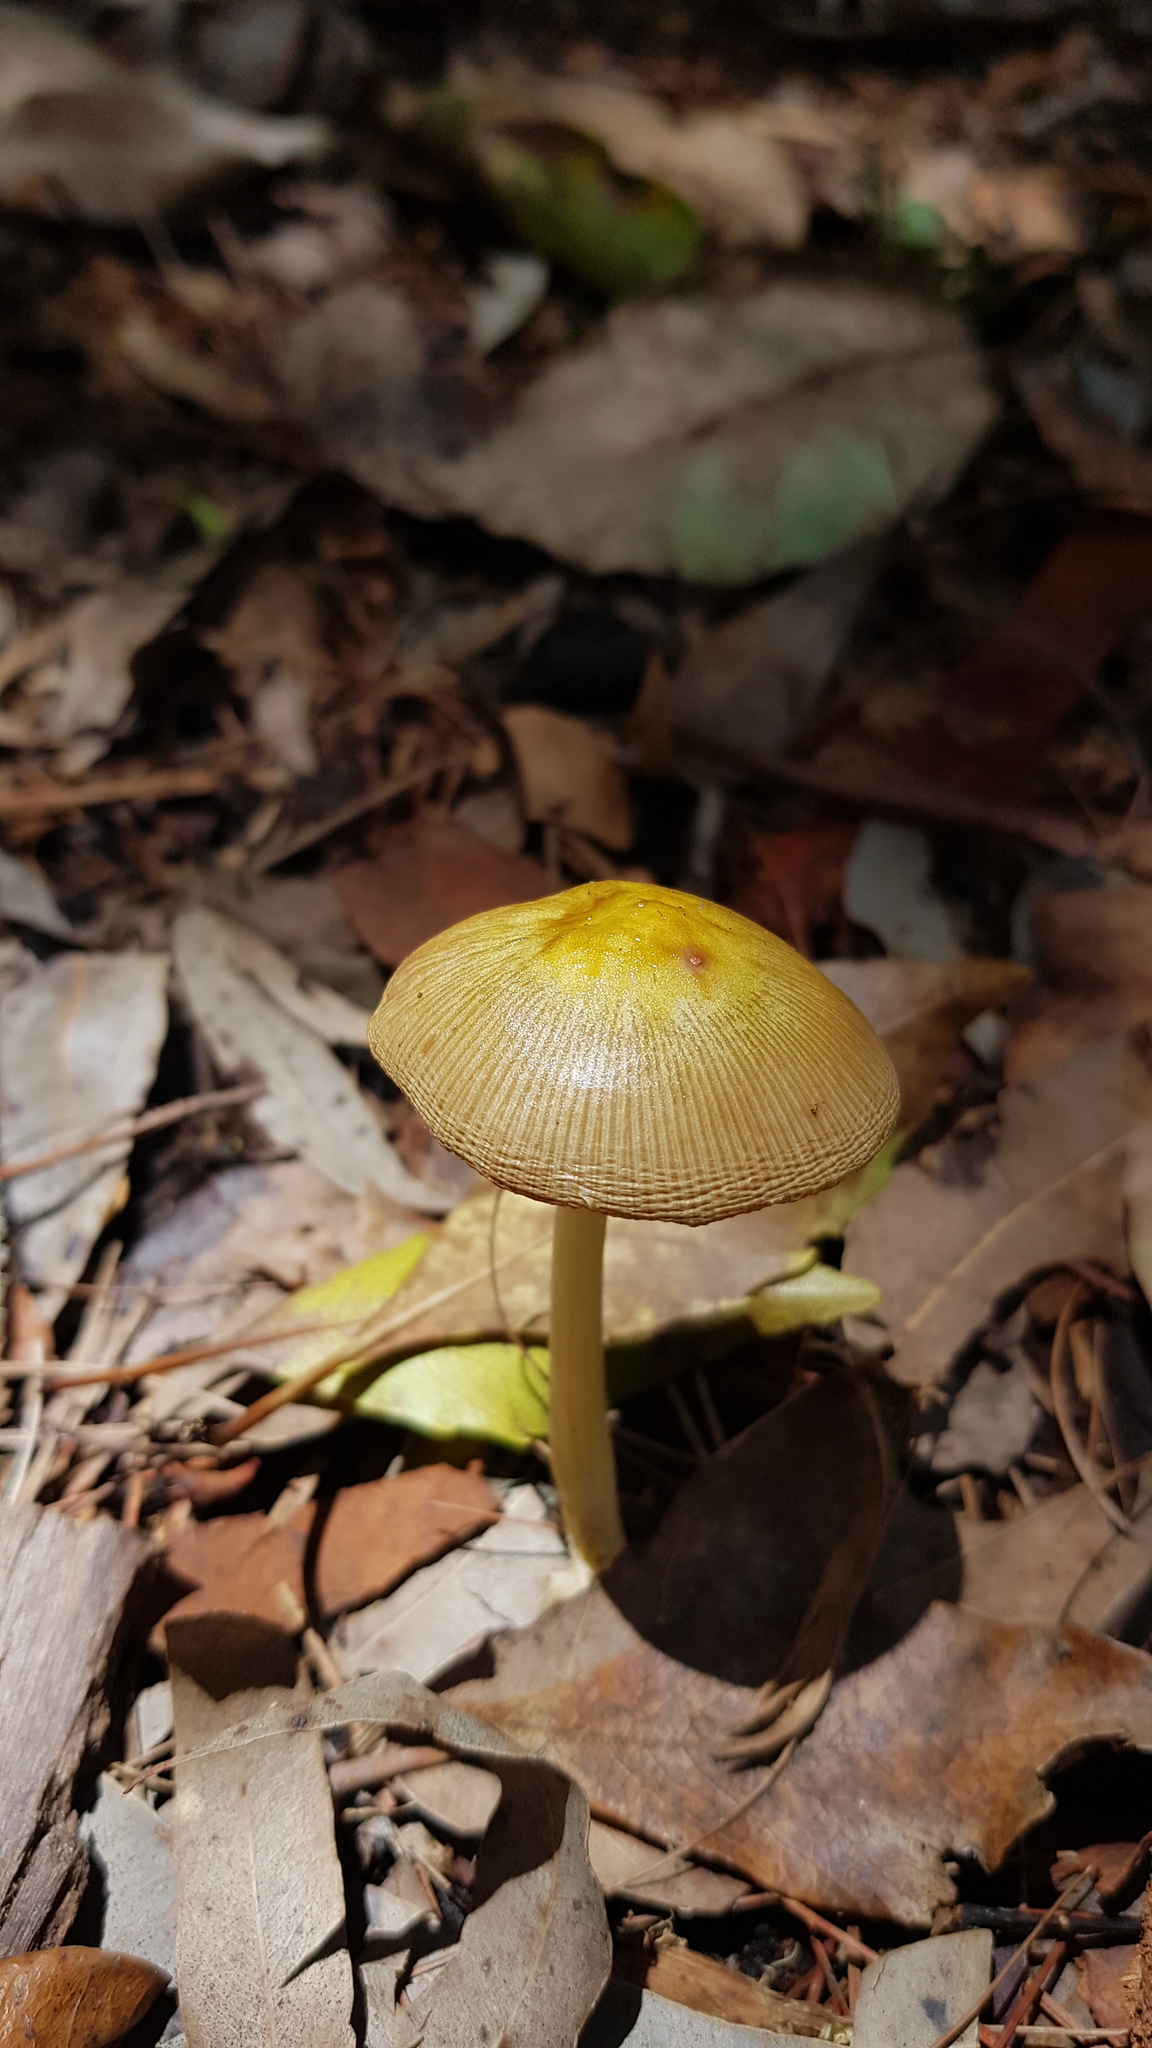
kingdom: Fungi
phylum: Basidiomycota
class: Agaricomycetes
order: Agaricales
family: Bolbitiaceae
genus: Bolbitius
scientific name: Bolbitius titubans
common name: Yellow fieldcap
